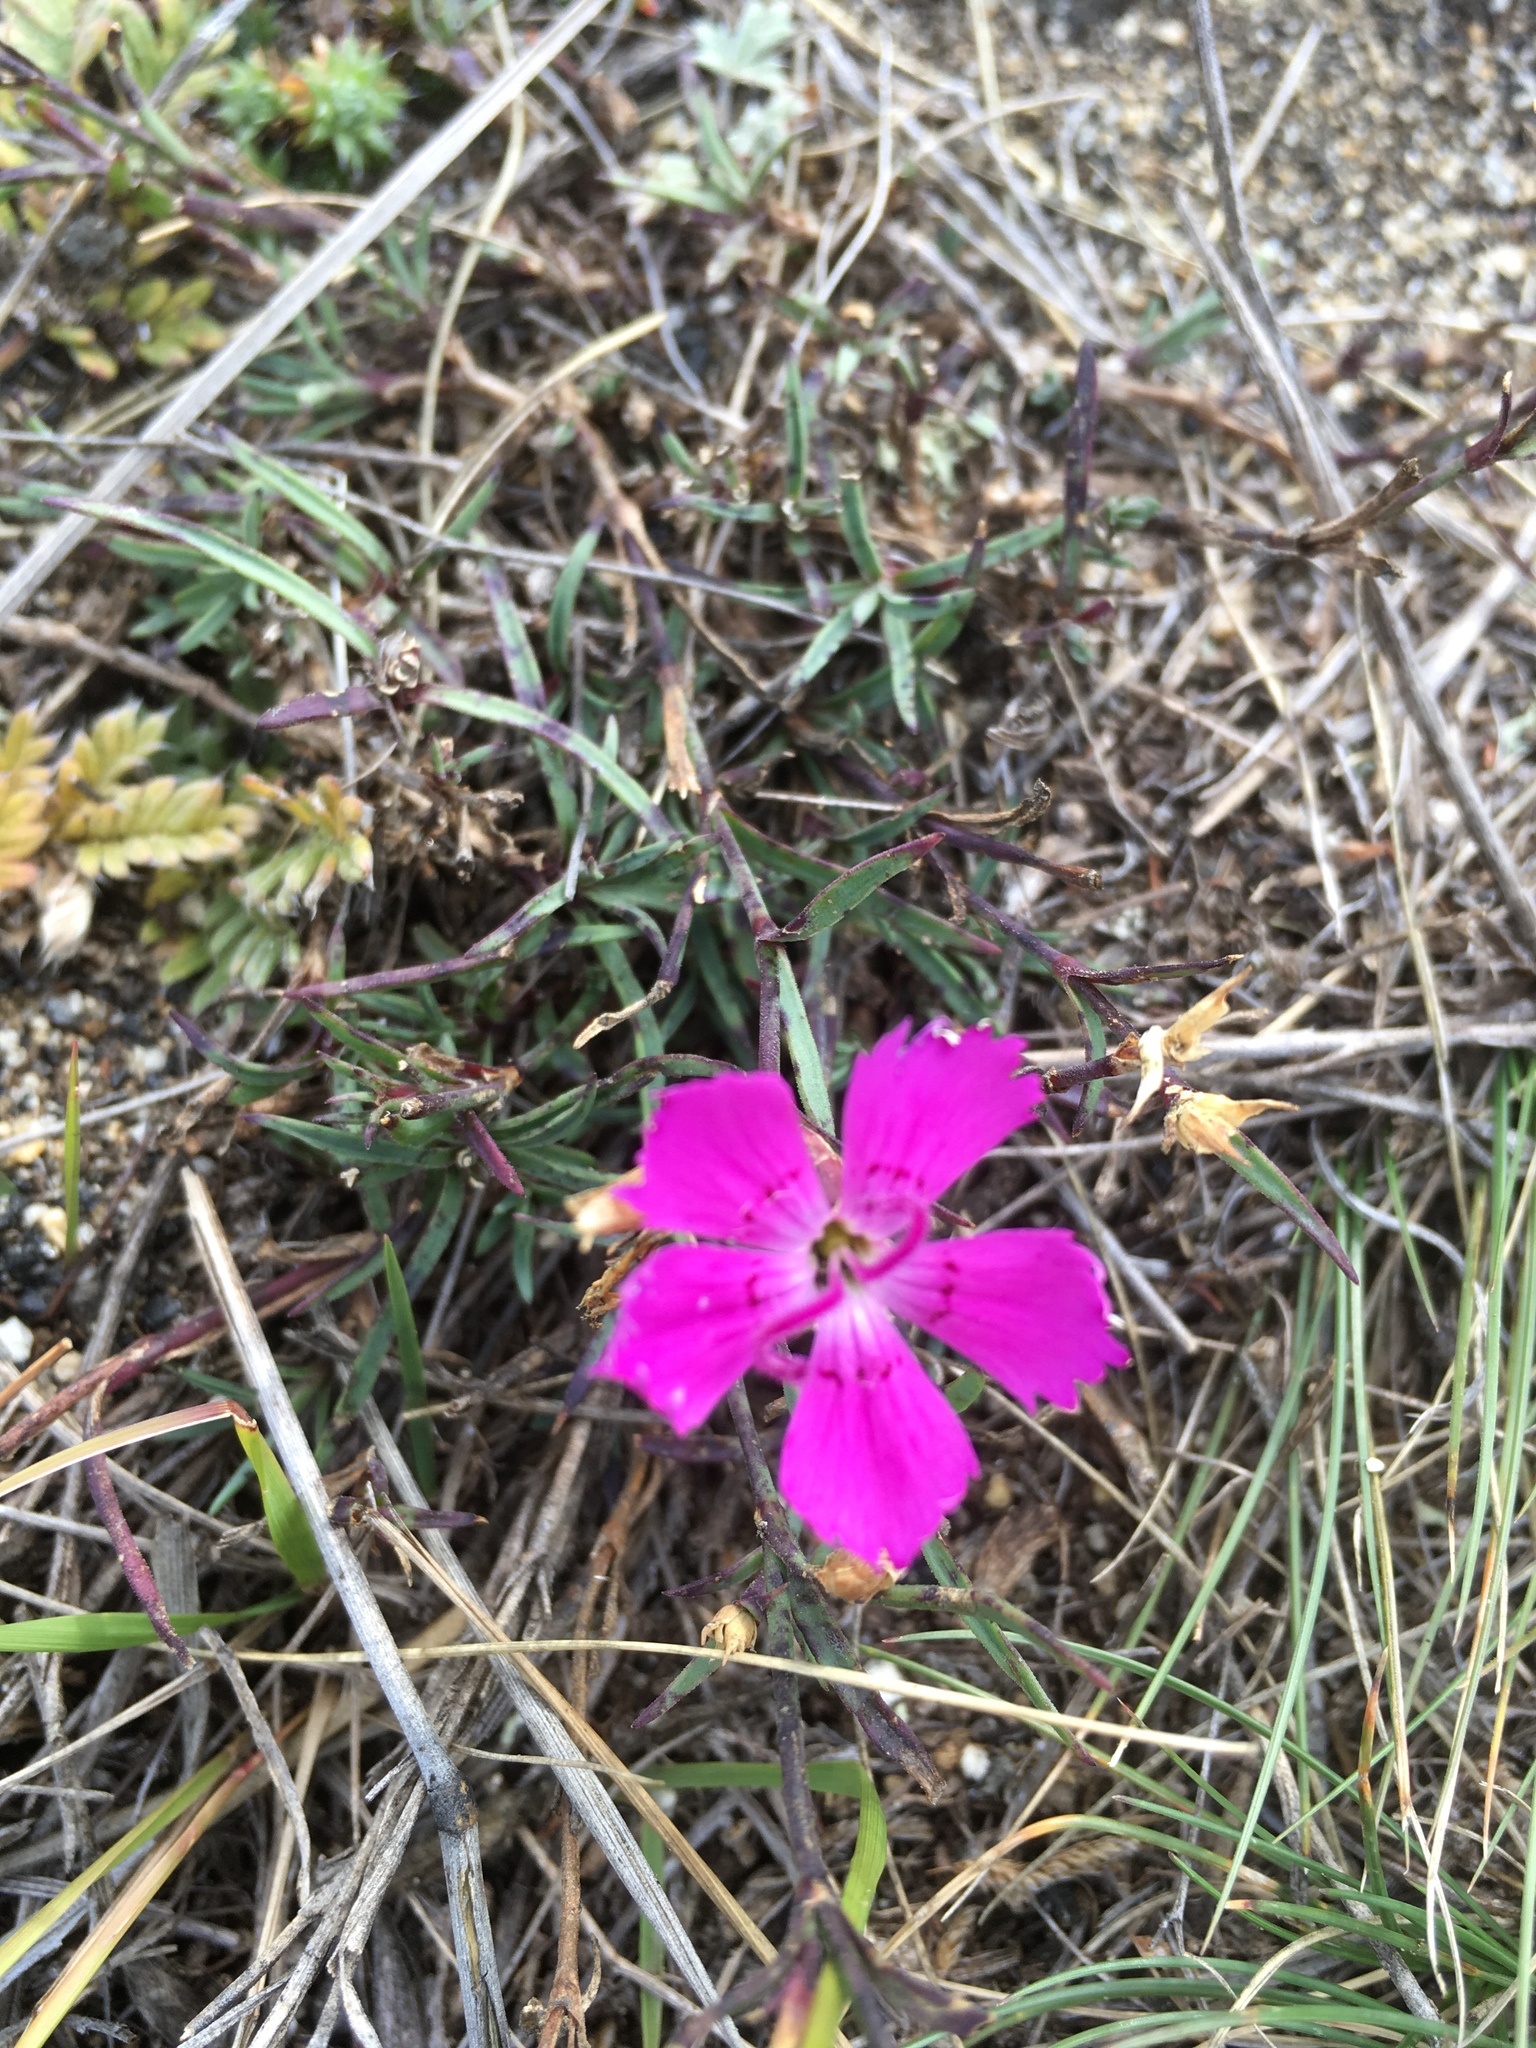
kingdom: Plantae
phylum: Tracheophyta
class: Magnoliopsida
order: Caryophyllales
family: Caryophyllaceae
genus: Dianthus
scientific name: Dianthus chinensis
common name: Rainbow pink
